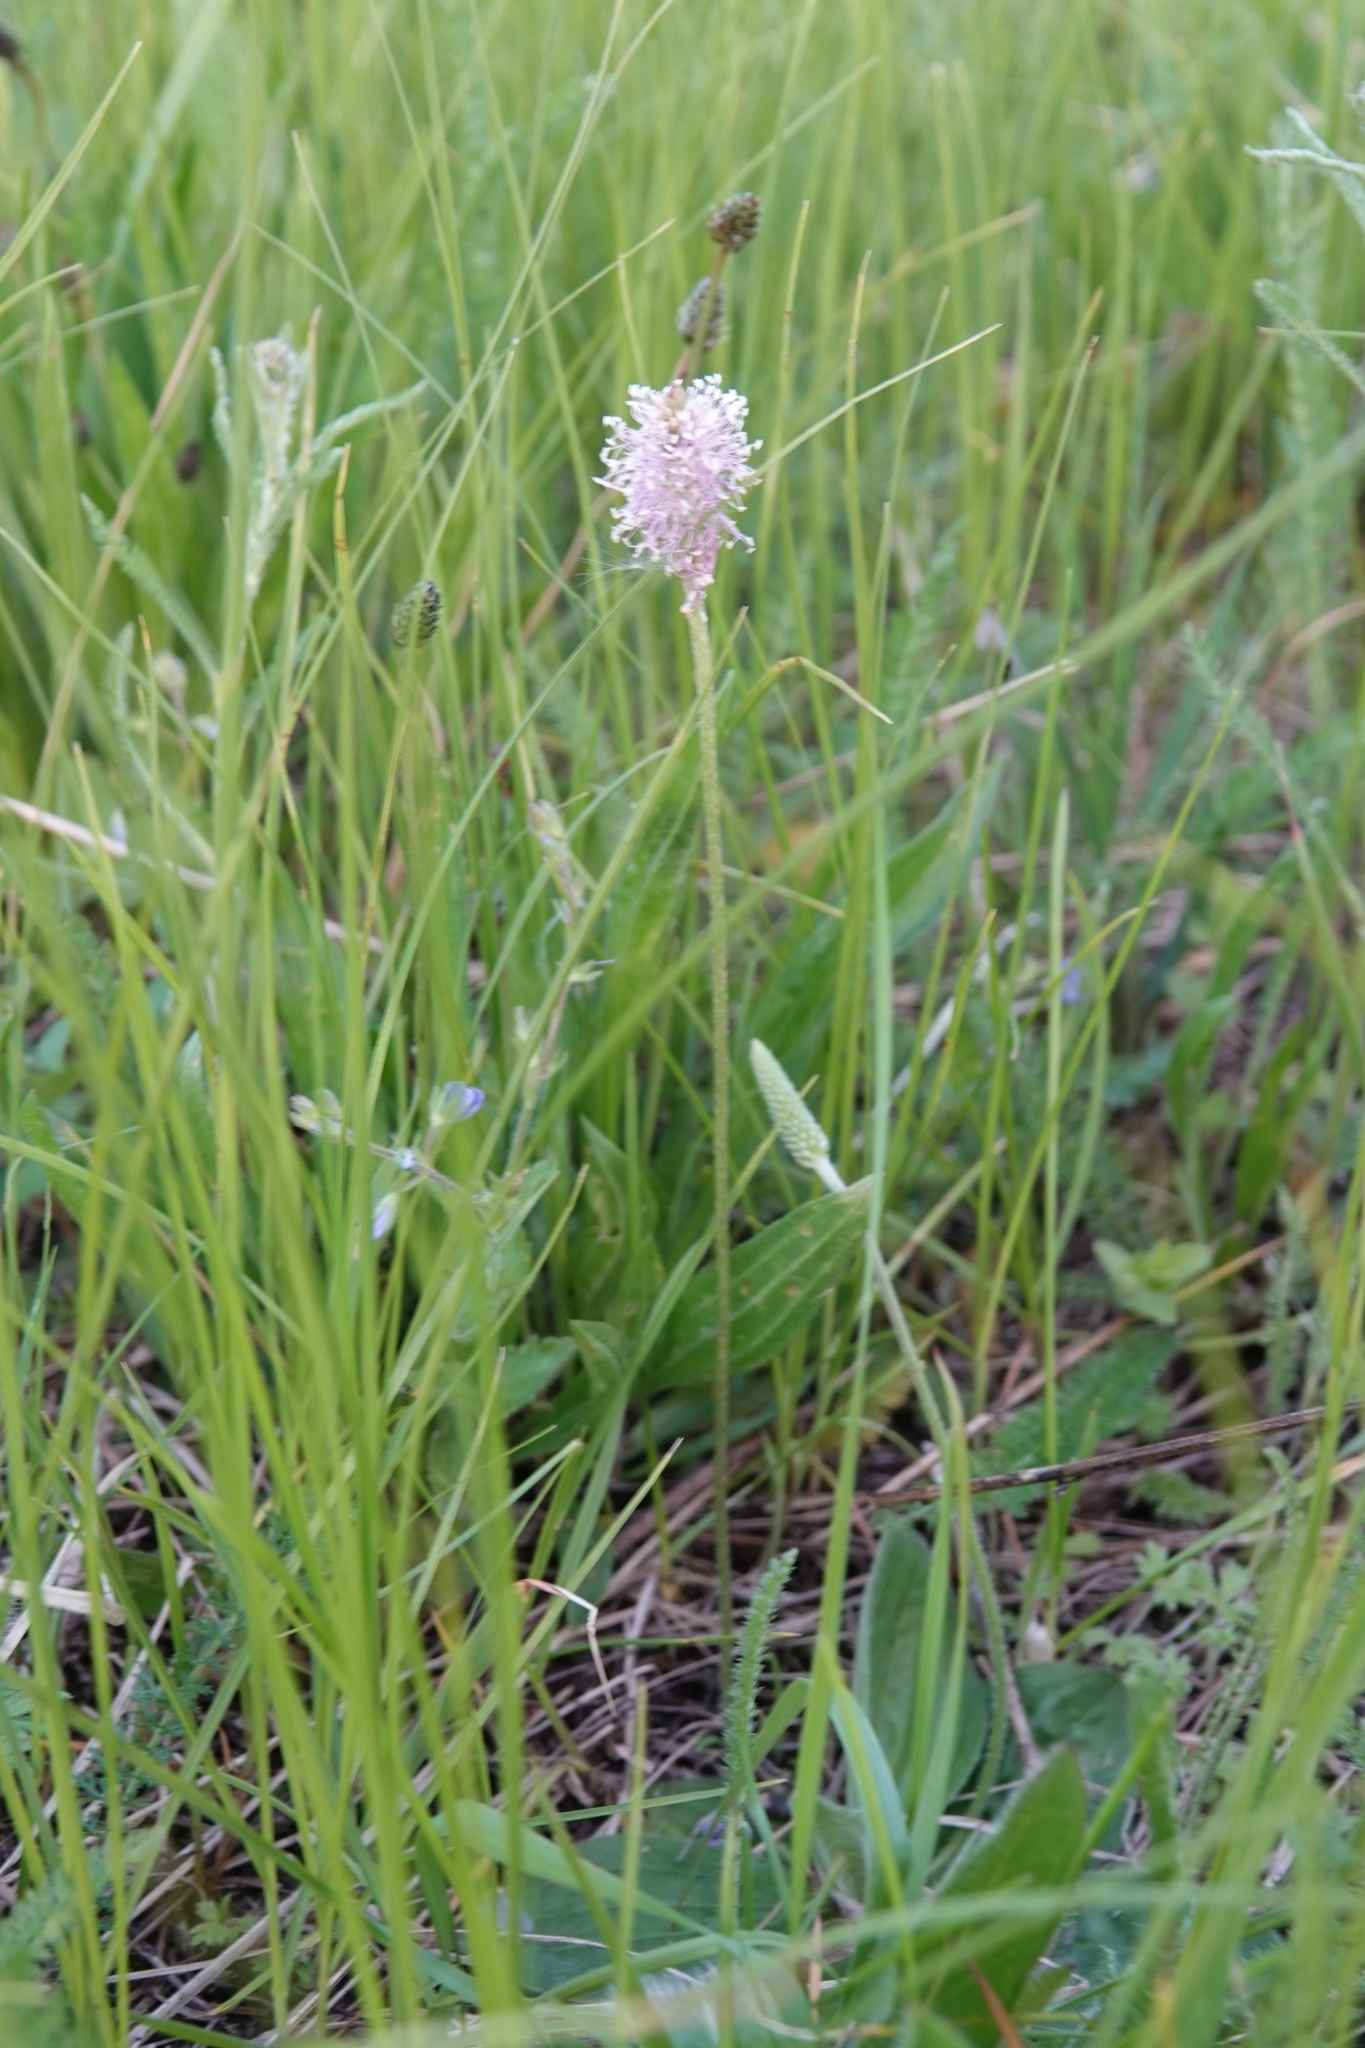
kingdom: Plantae
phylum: Tracheophyta
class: Magnoliopsida
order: Lamiales
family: Plantaginaceae
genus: Plantago
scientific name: Plantago media
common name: Hoary plantain
